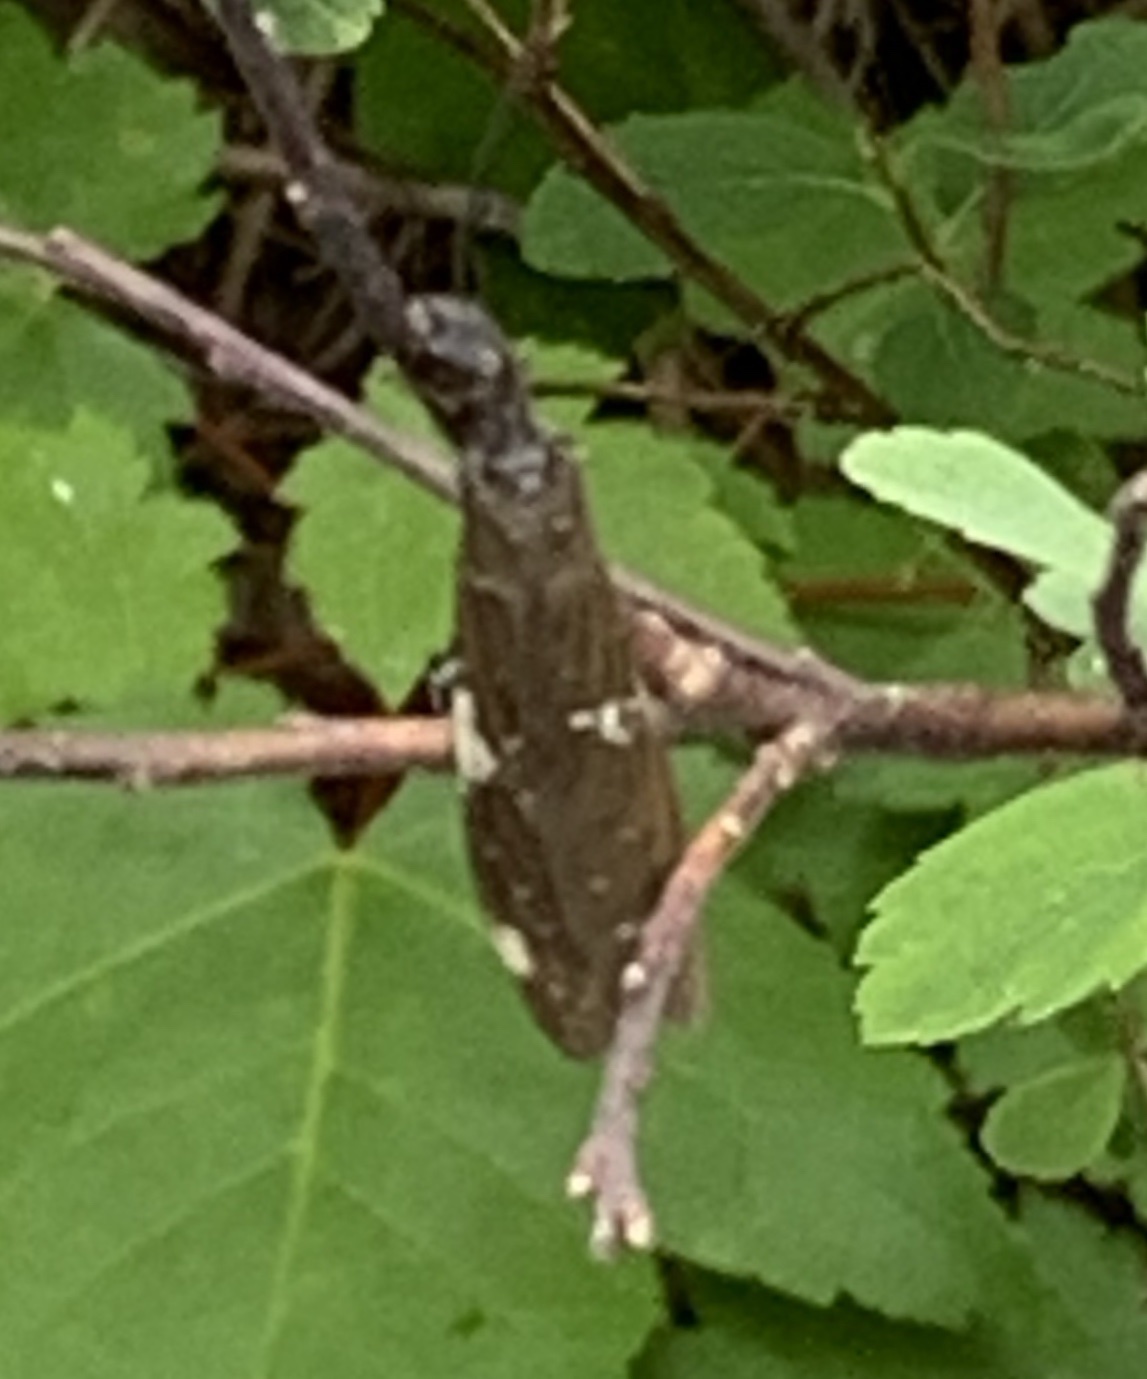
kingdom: Animalia
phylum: Arthropoda
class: Insecta
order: Megaloptera
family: Corydalidae
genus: Nigronia
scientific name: Nigronia serricornis
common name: Serrate dark fishfly
